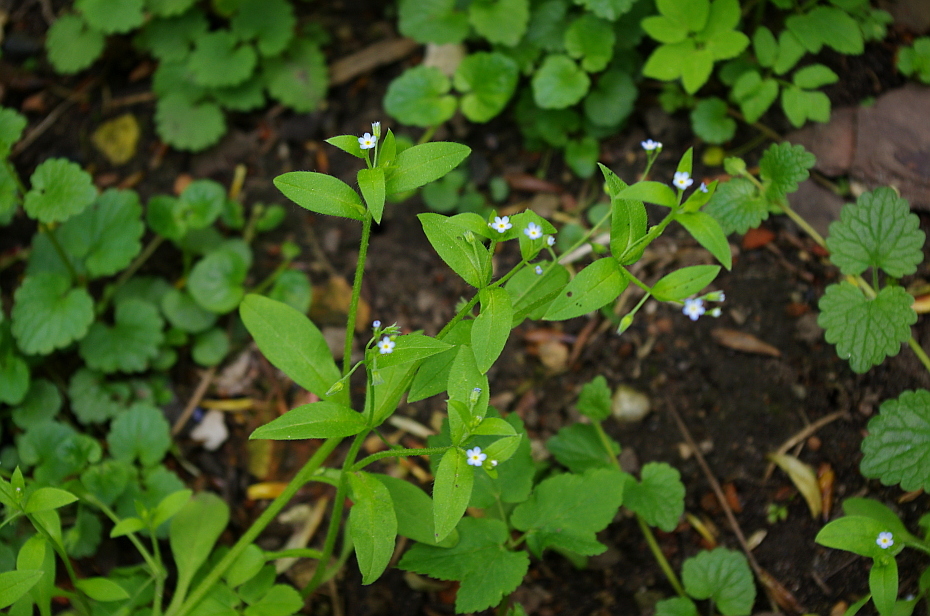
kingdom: Plantae
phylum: Tracheophyta
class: Magnoliopsida
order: Boraginales
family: Boraginaceae
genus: Myosotis
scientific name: Myosotis sparsiflora
